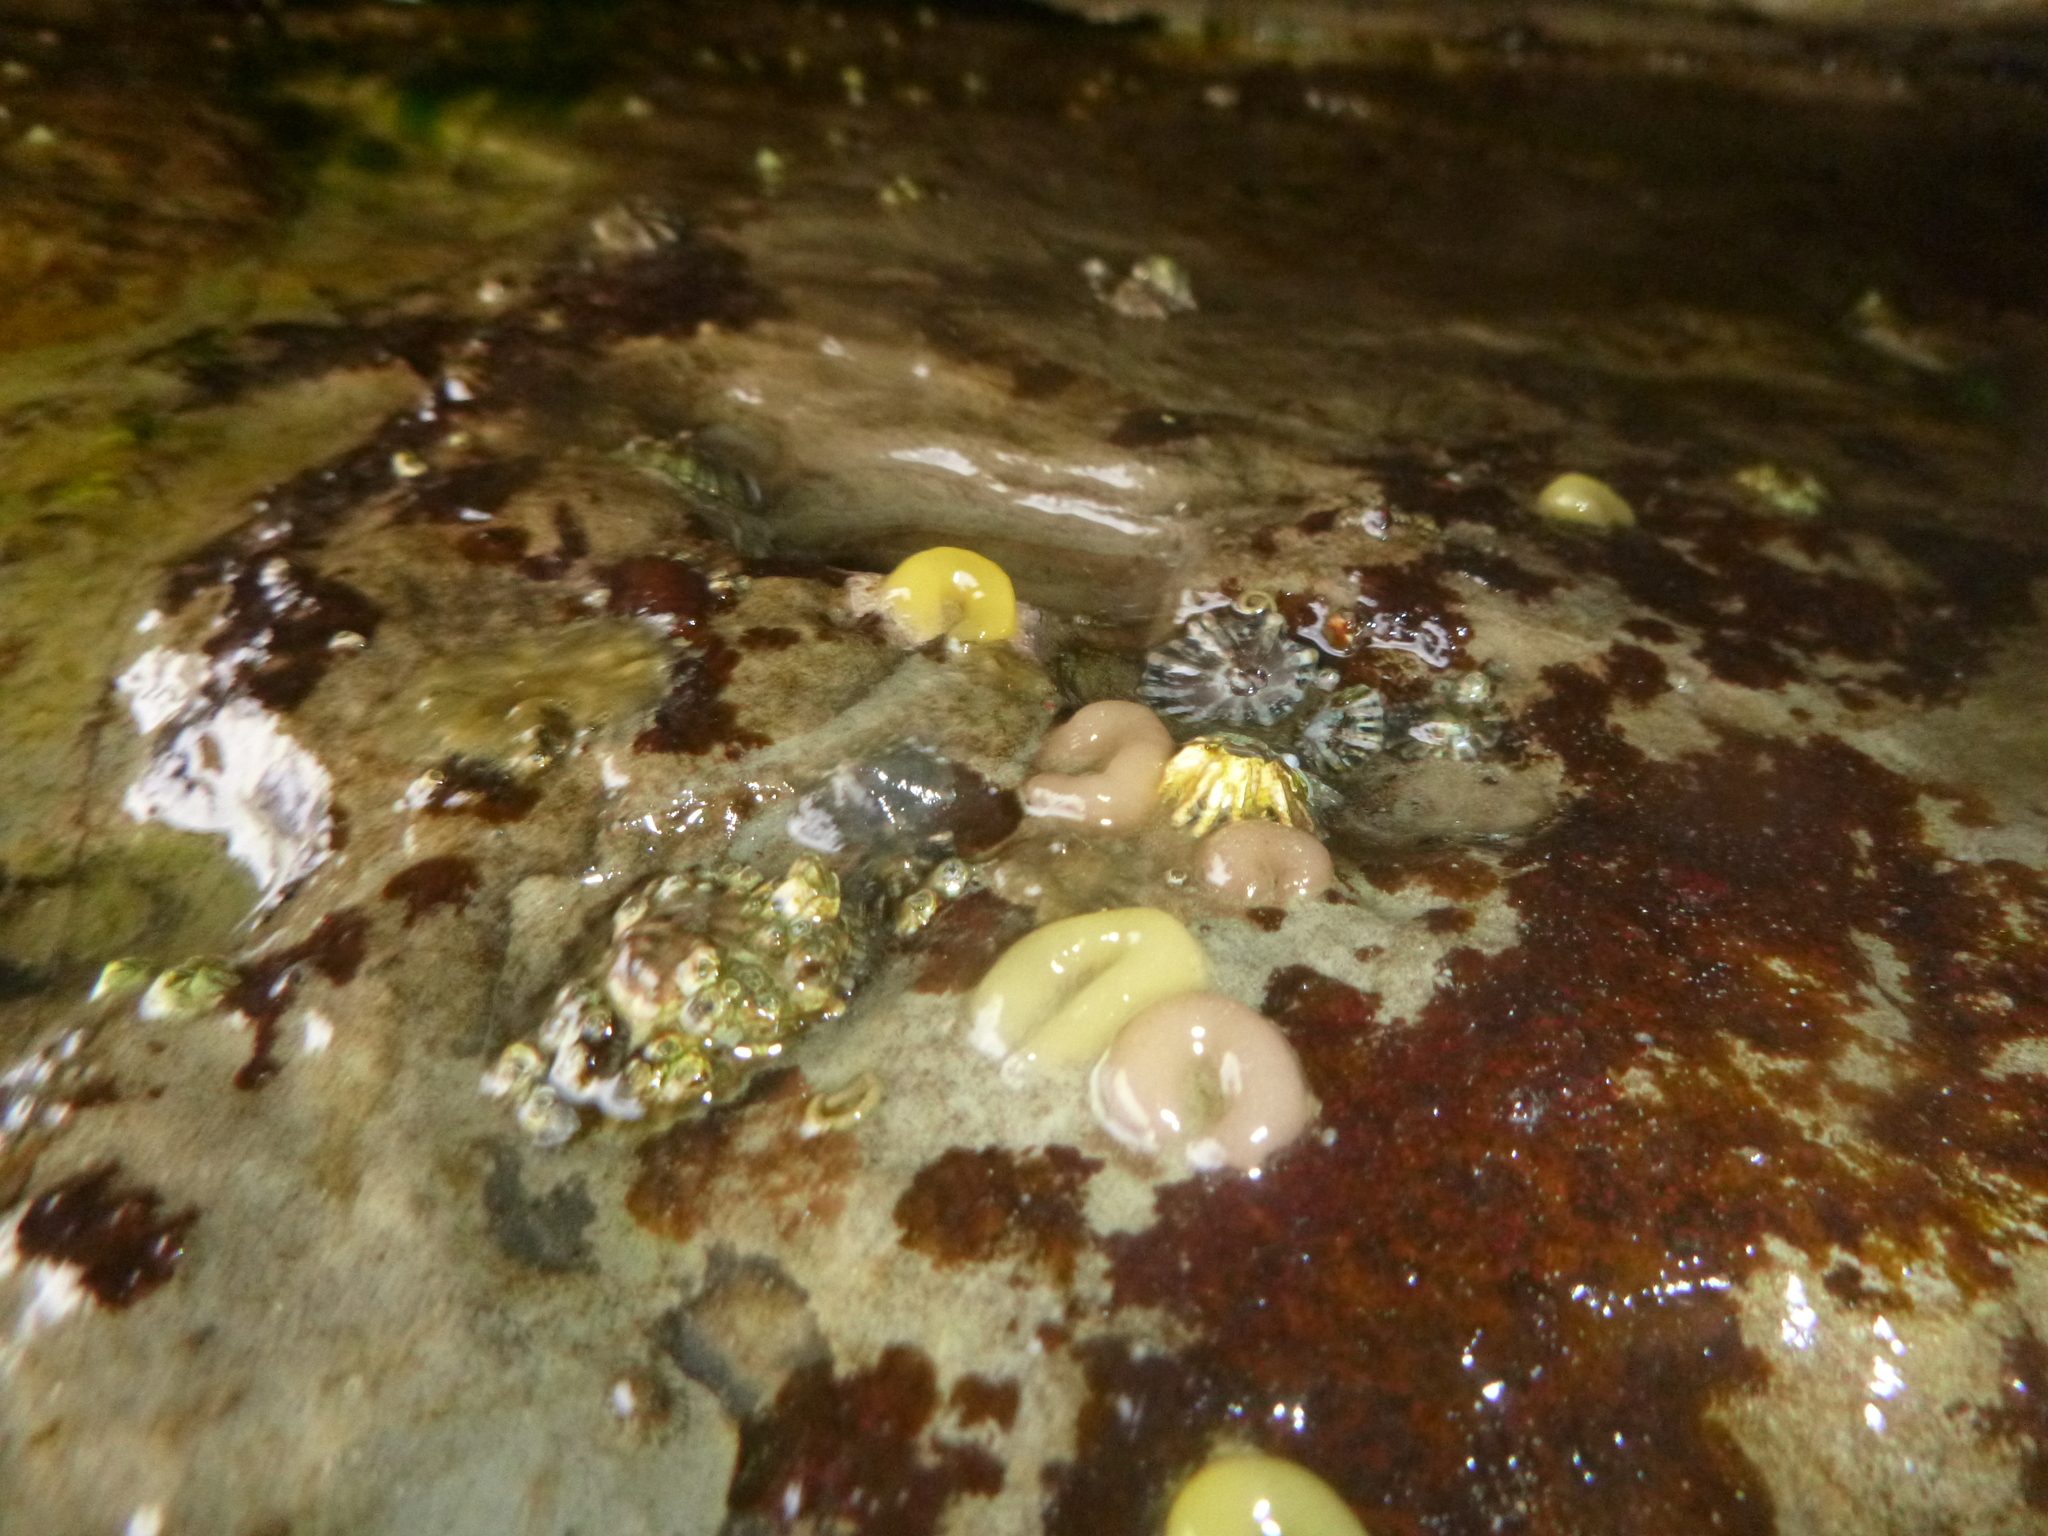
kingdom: Animalia
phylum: Mollusca
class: Gastropoda
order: Siphonariida
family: Siphonariidae
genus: Siphonaria
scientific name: Siphonaria australis
